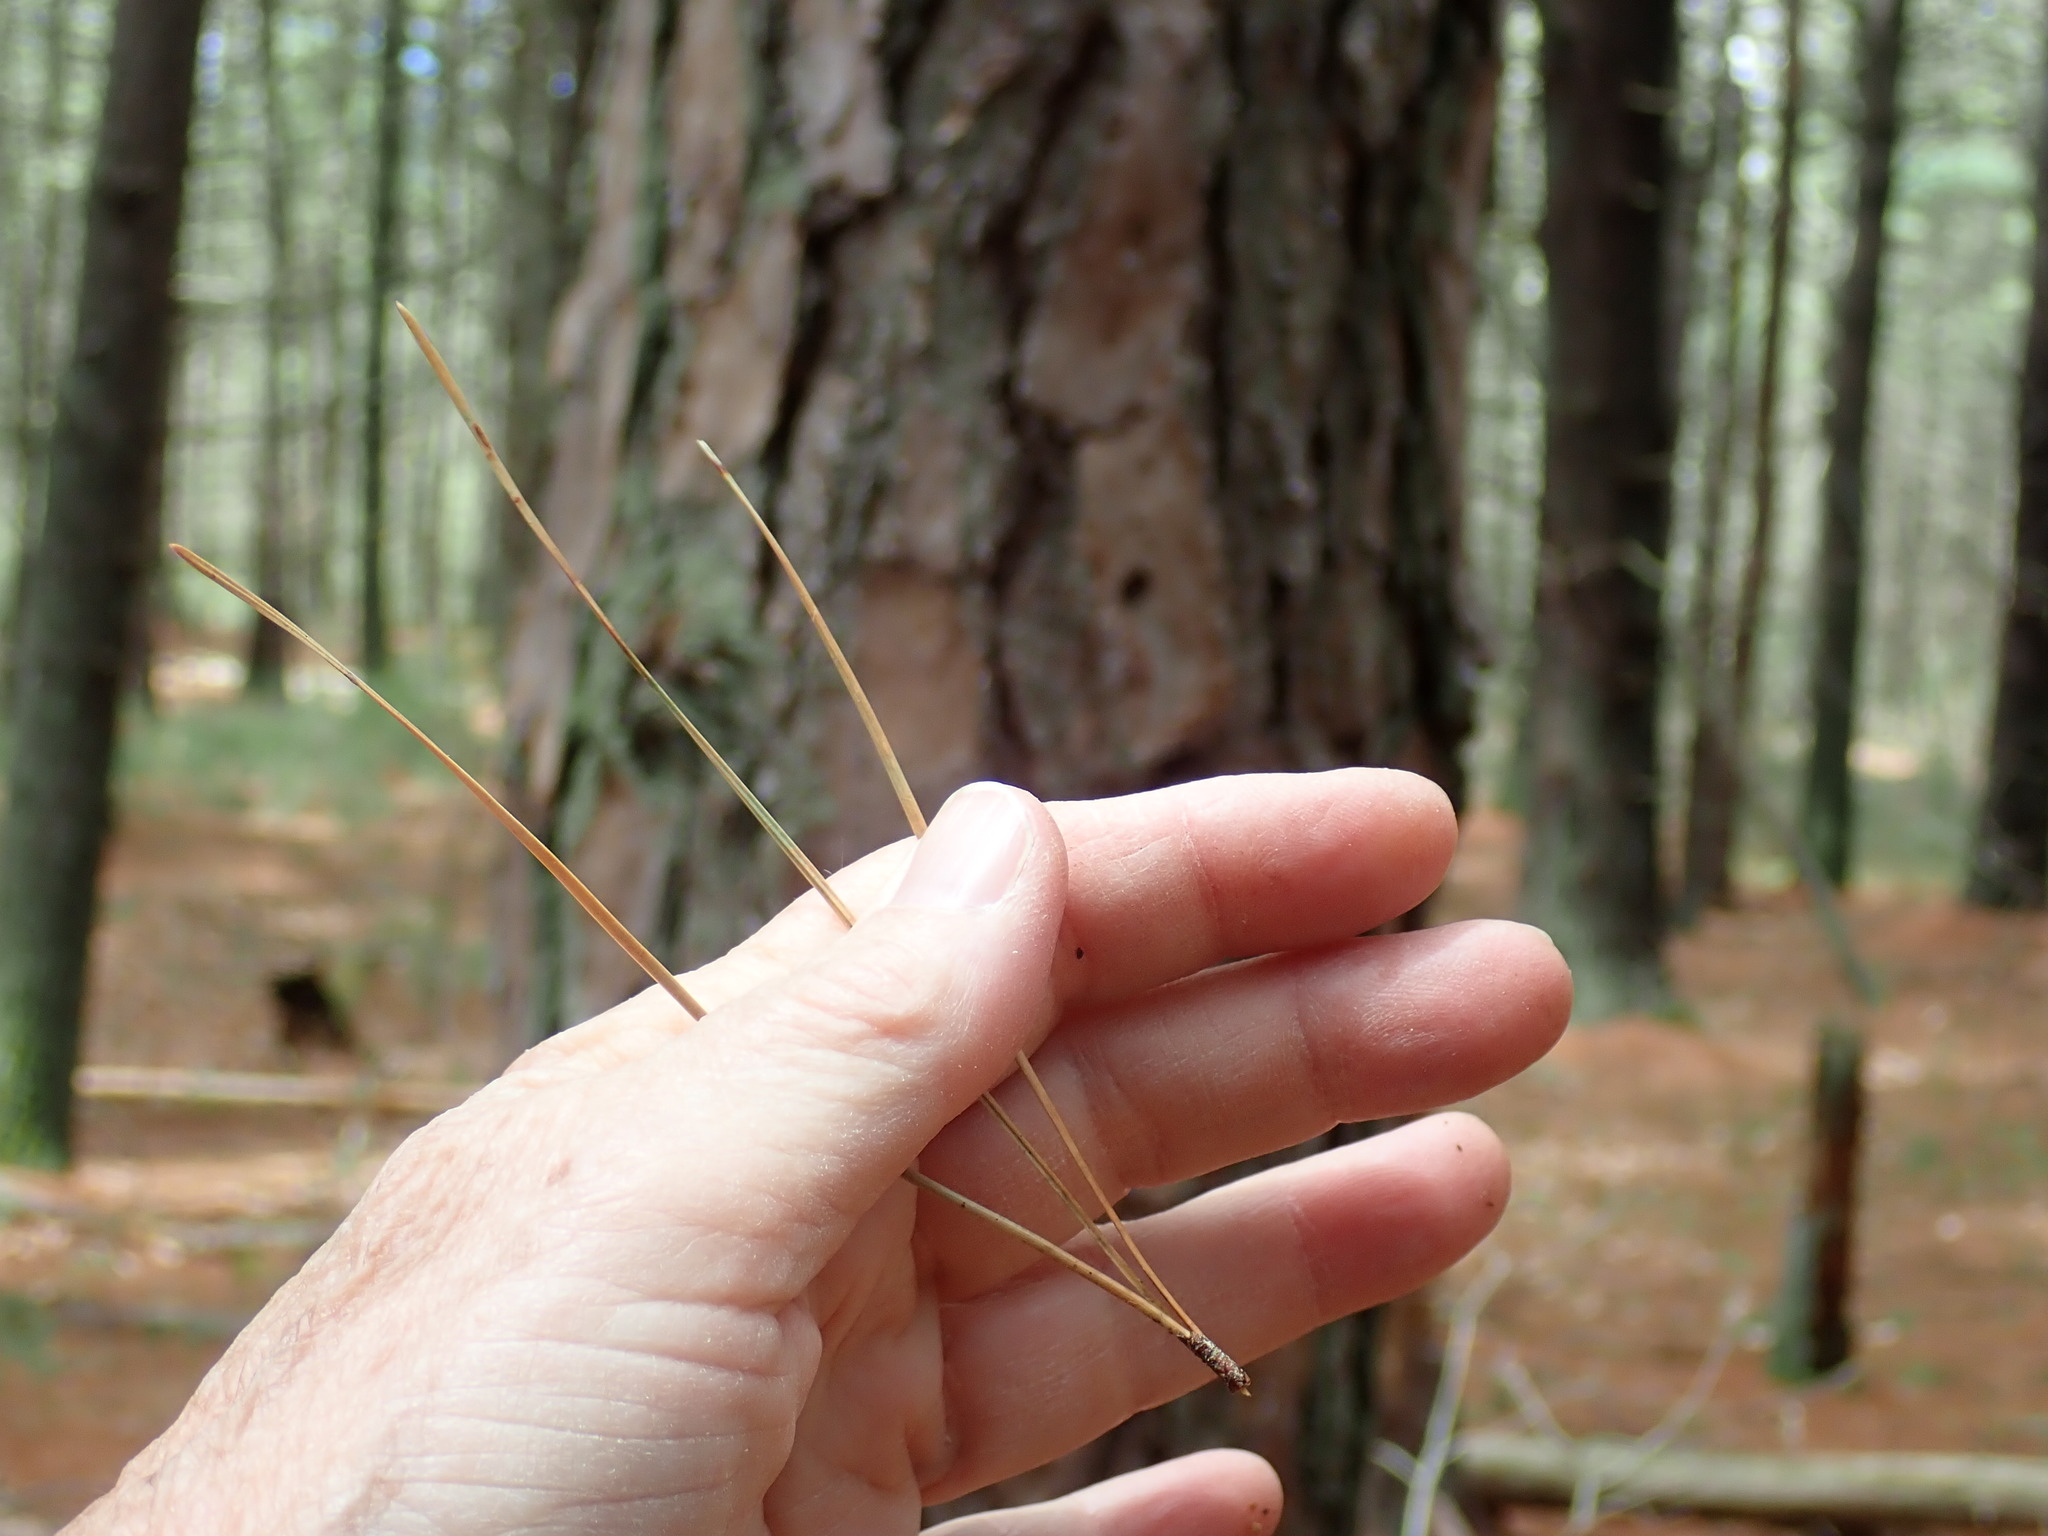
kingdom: Plantae
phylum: Tracheophyta
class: Pinopsida
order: Pinales
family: Pinaceae
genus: Pinus
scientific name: Pinus rigida
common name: Pitch pine
